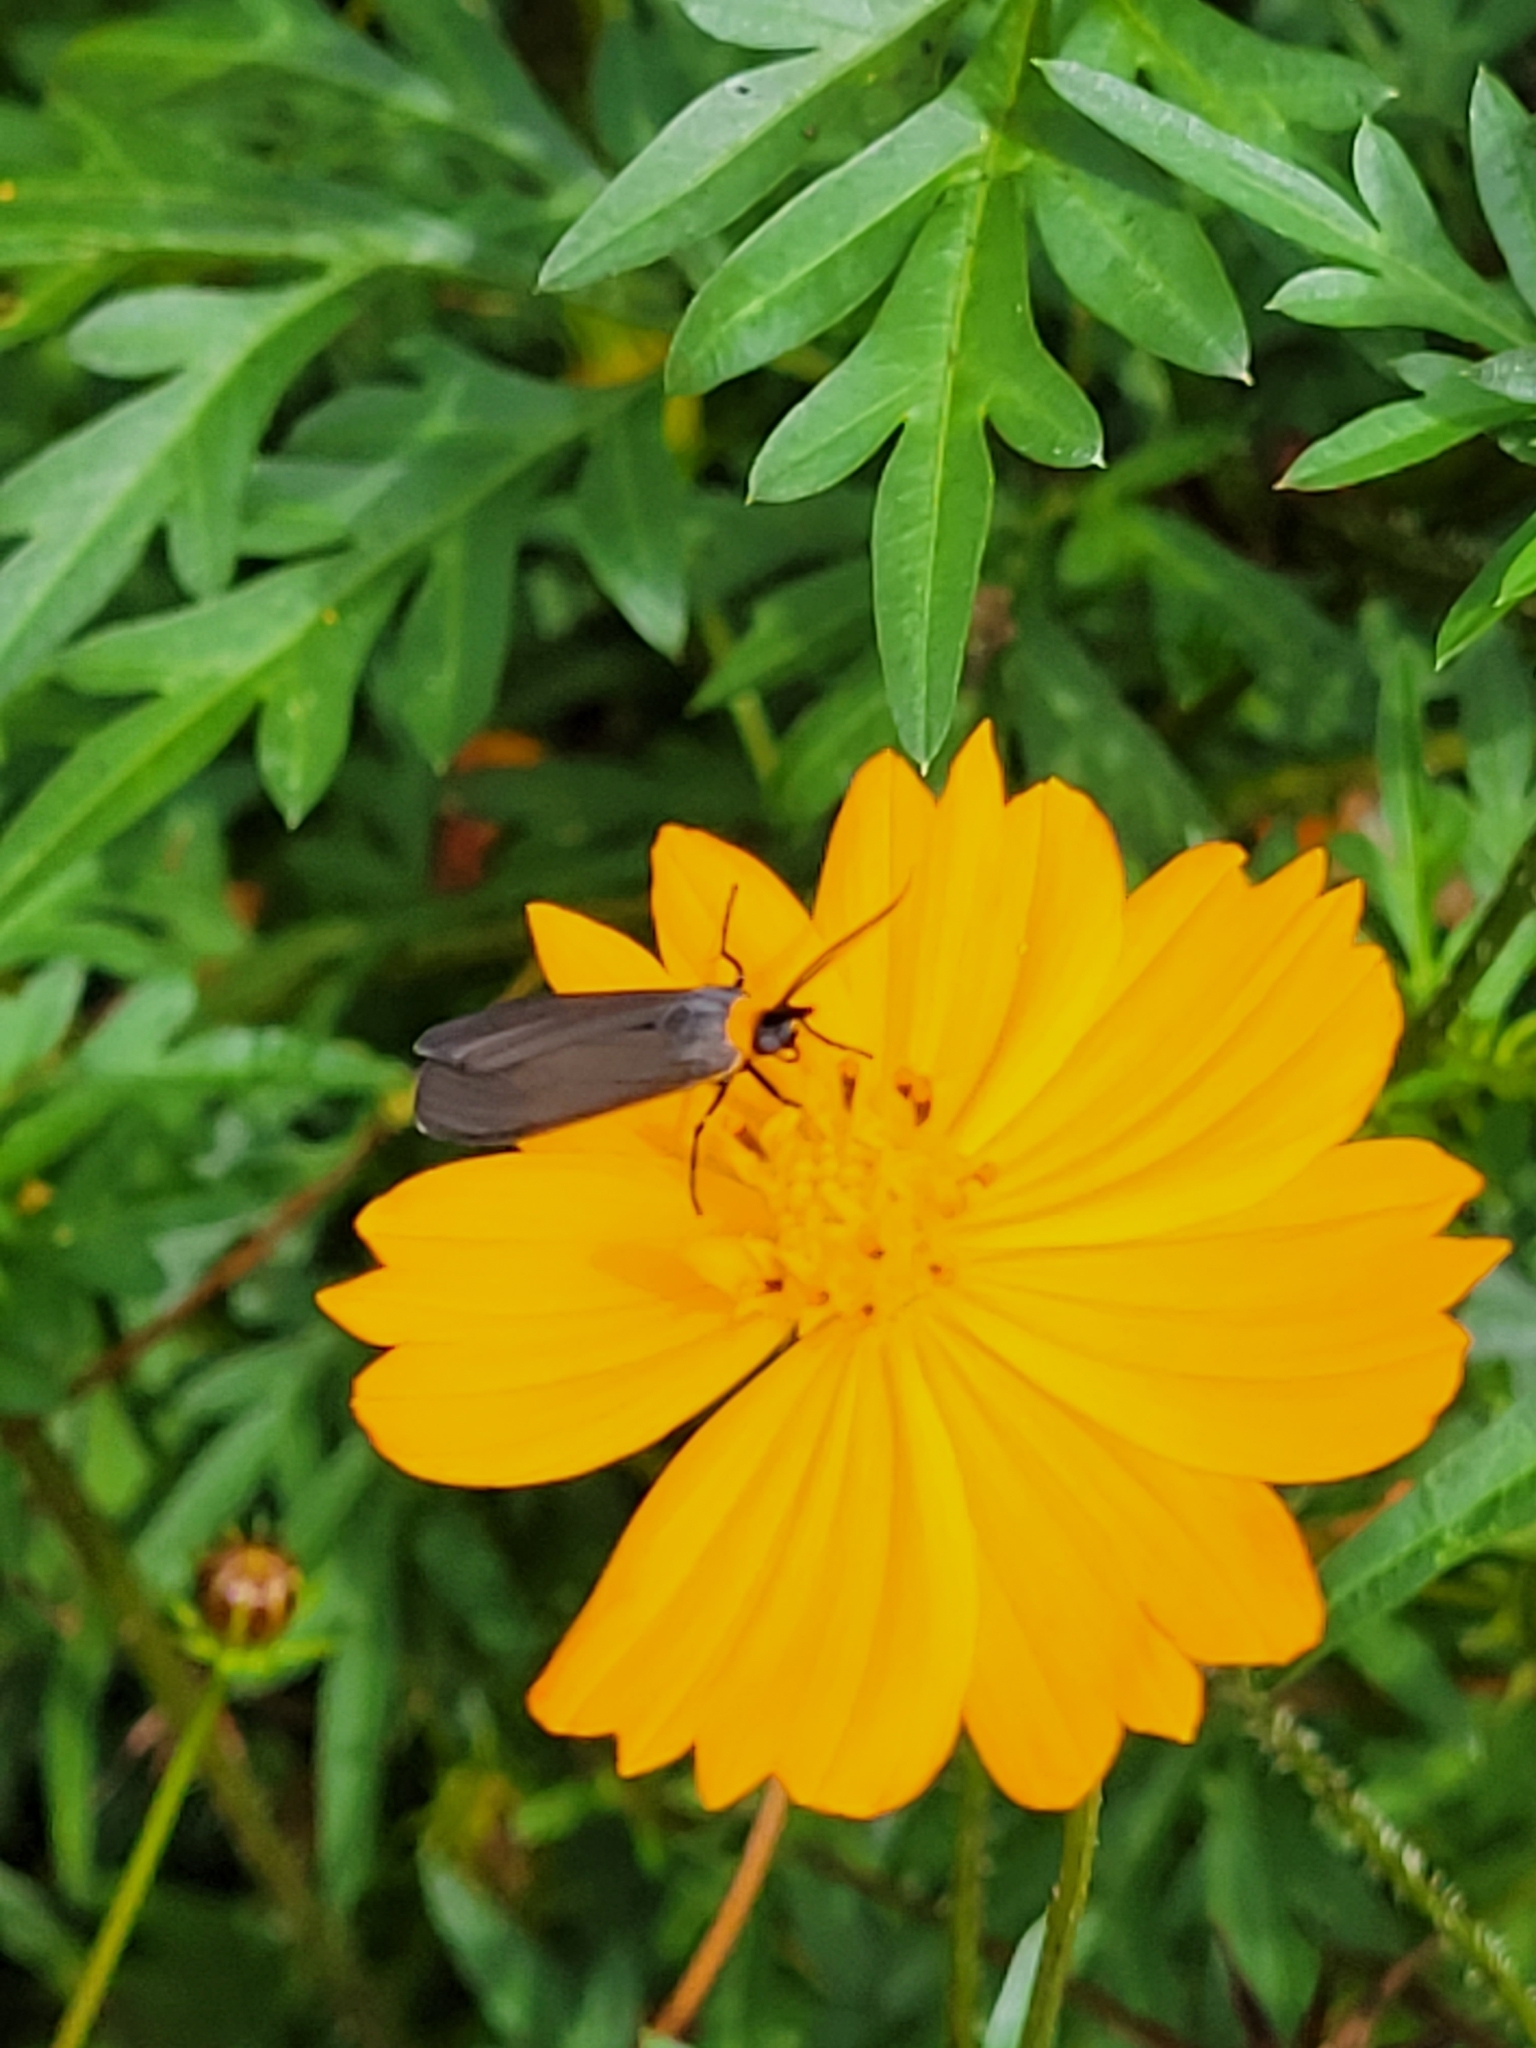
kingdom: Animalia
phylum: Arthropoda
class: Insecta
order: Lepidoptera
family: Erebidae
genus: Cisseps
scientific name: Cisseps fulvicollis
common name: Yellow-collared scape moth
